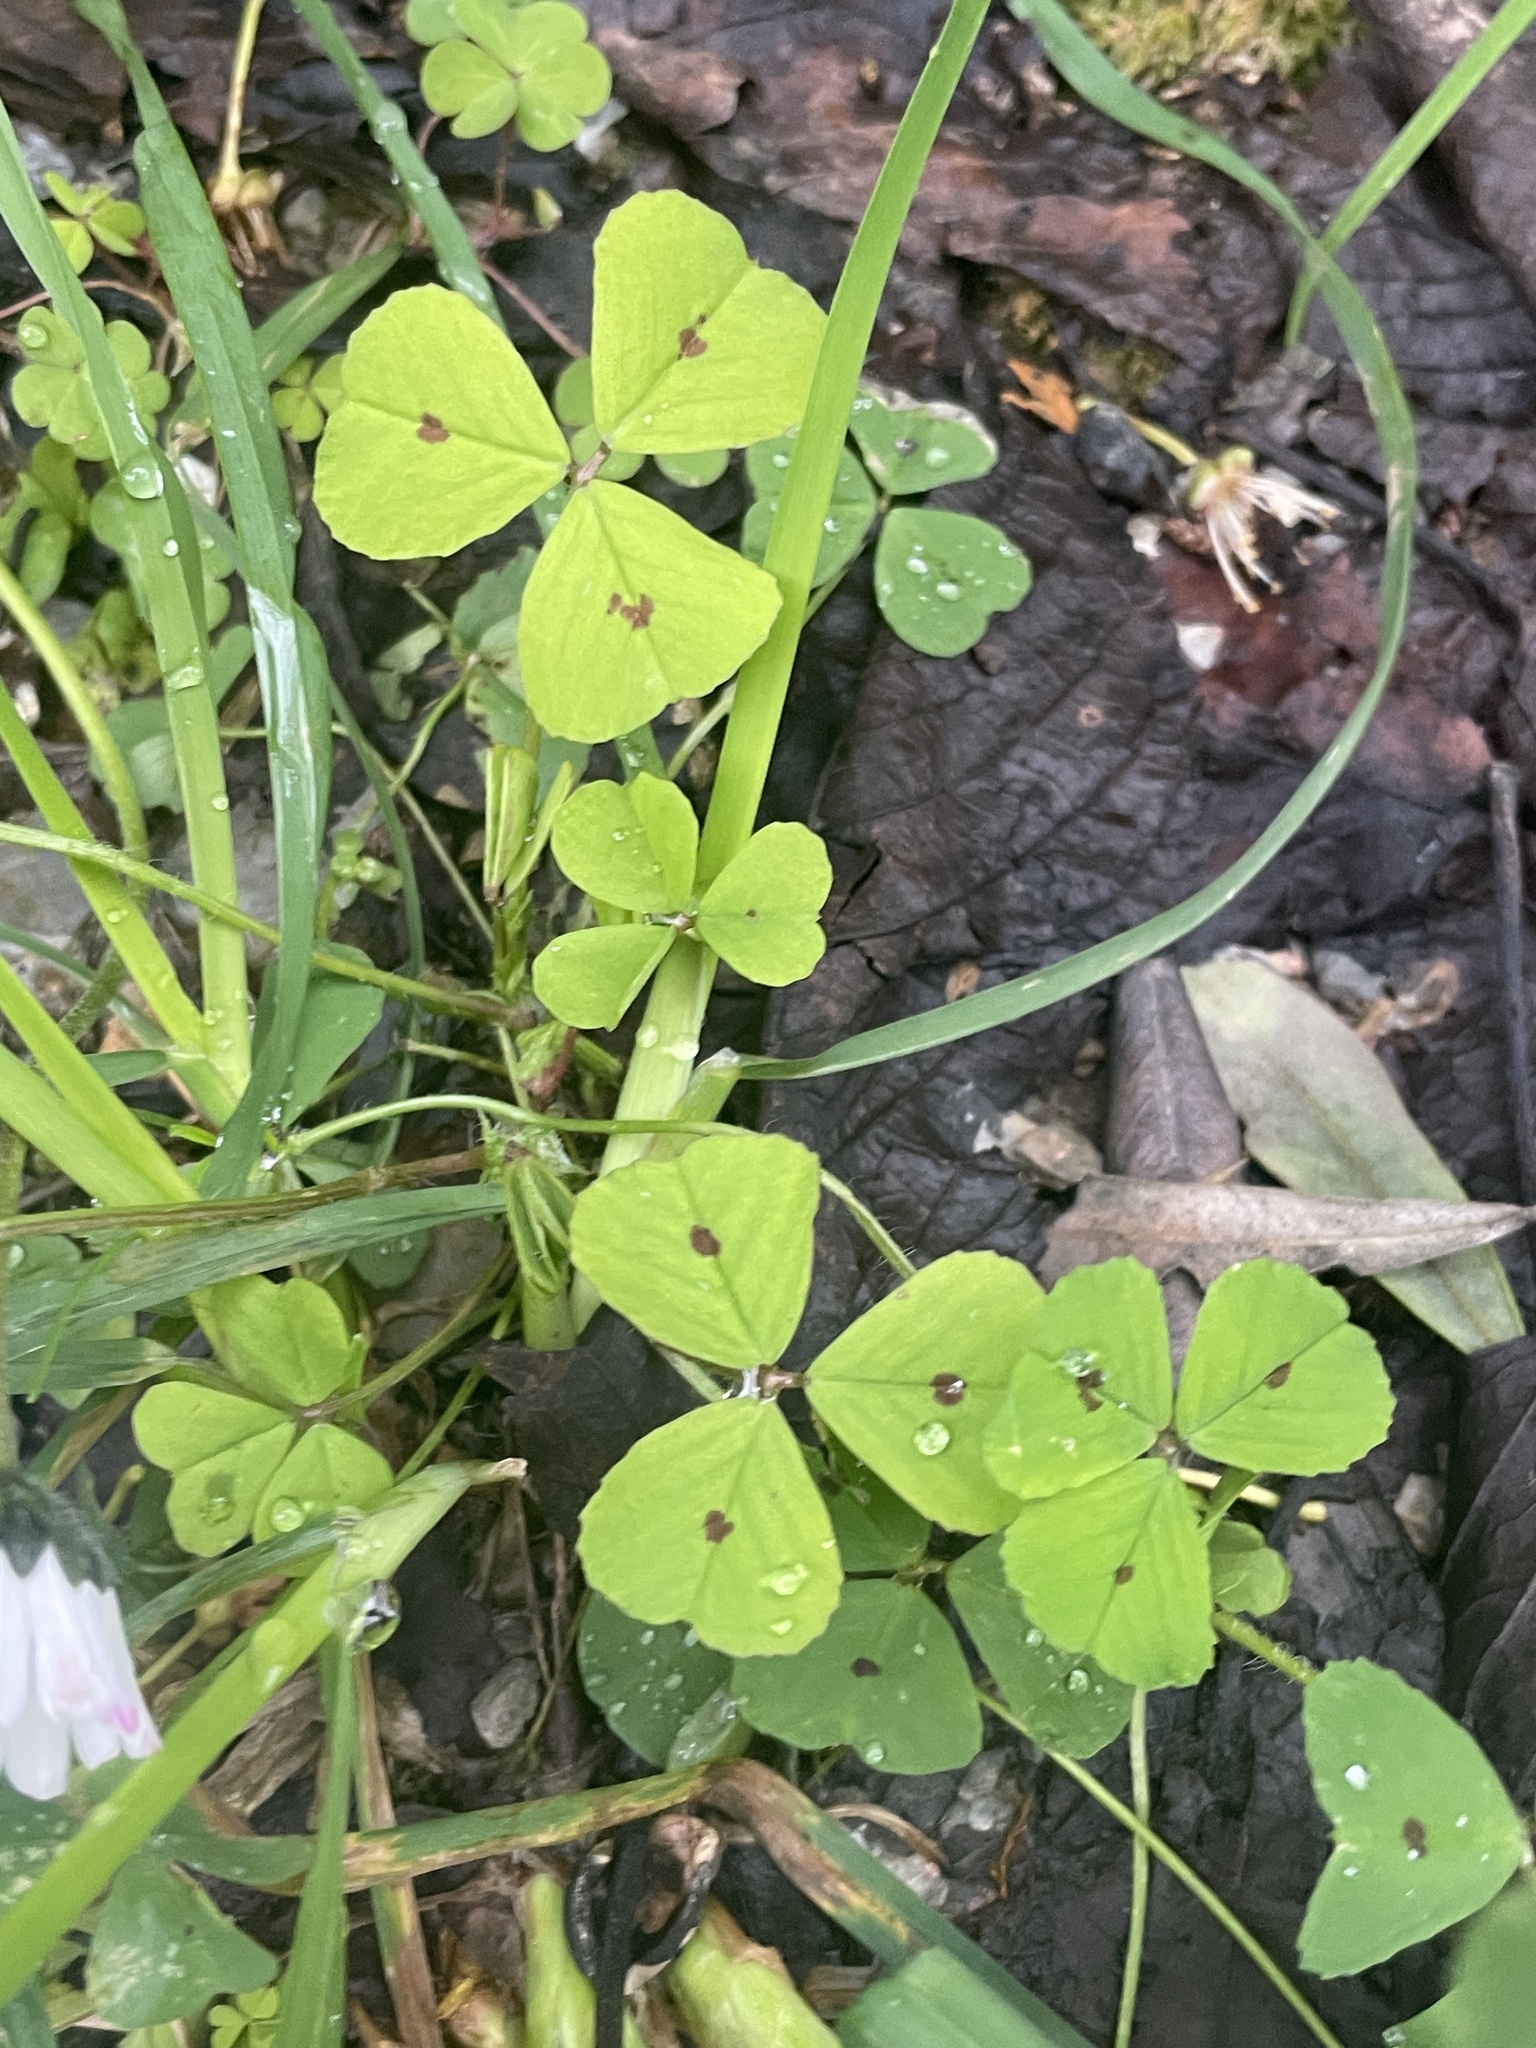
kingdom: Plantae
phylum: Tracheophyta
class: Magnoliopsida
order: Fabales
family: Fabaceae
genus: Medicago
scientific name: Medicago arabica
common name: Spotted medick
